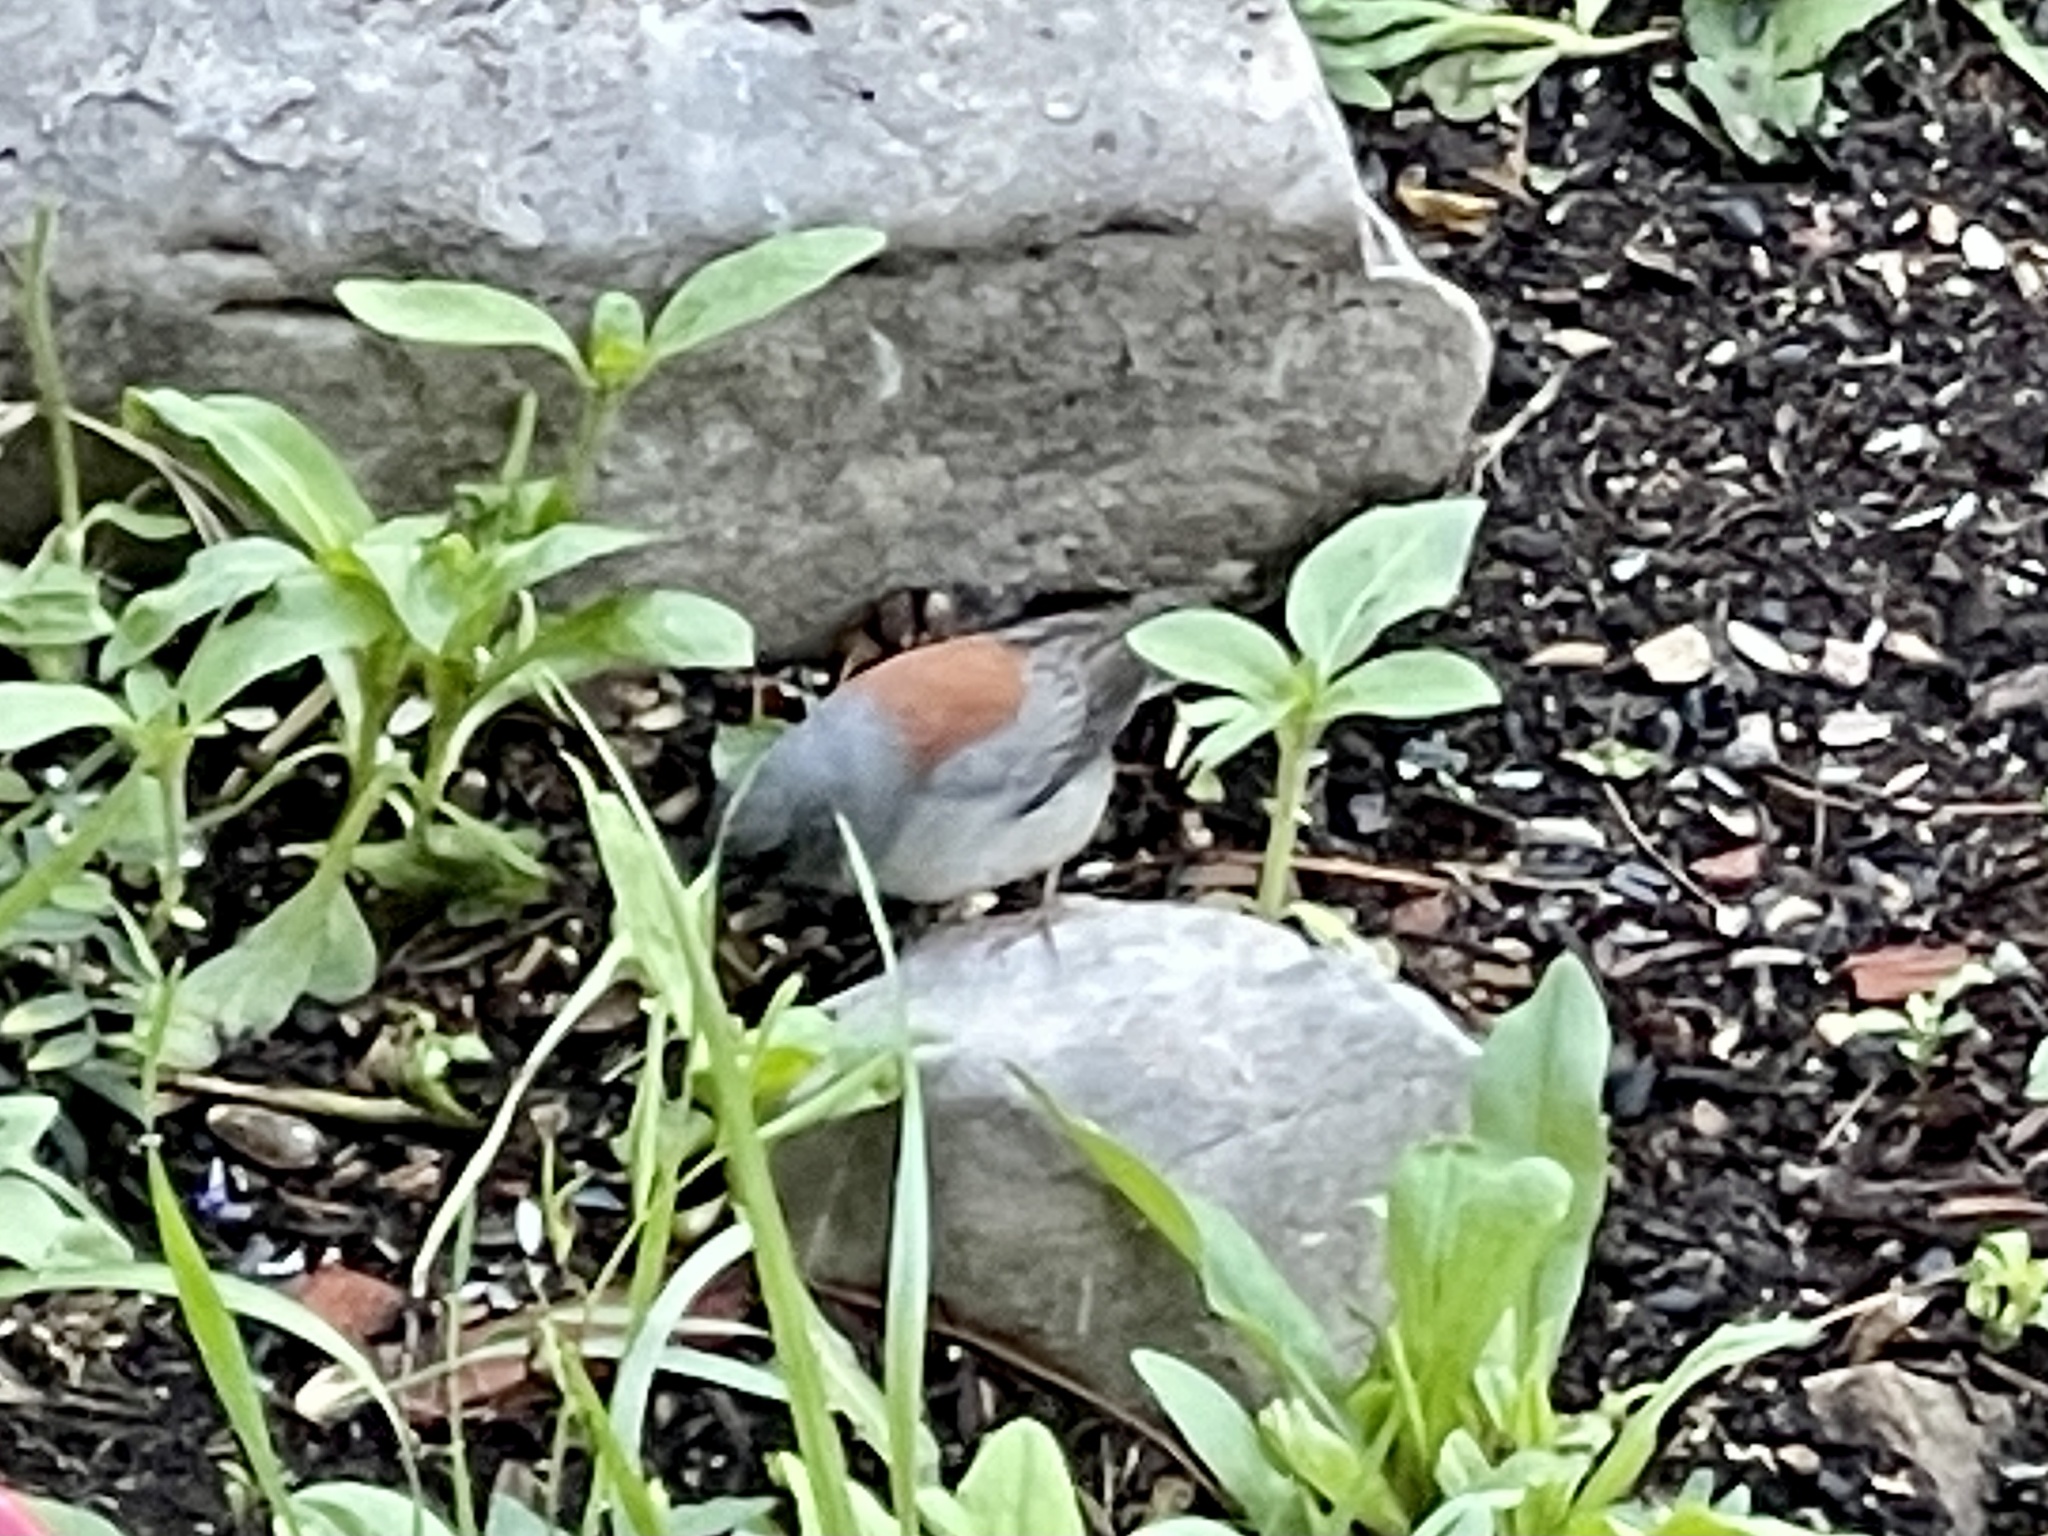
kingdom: Animalia
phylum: Chordata
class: Aves
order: Passeriformes
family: Passerellidae
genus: Junco
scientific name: Junco hyemalis
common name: Dark-eyed junco
